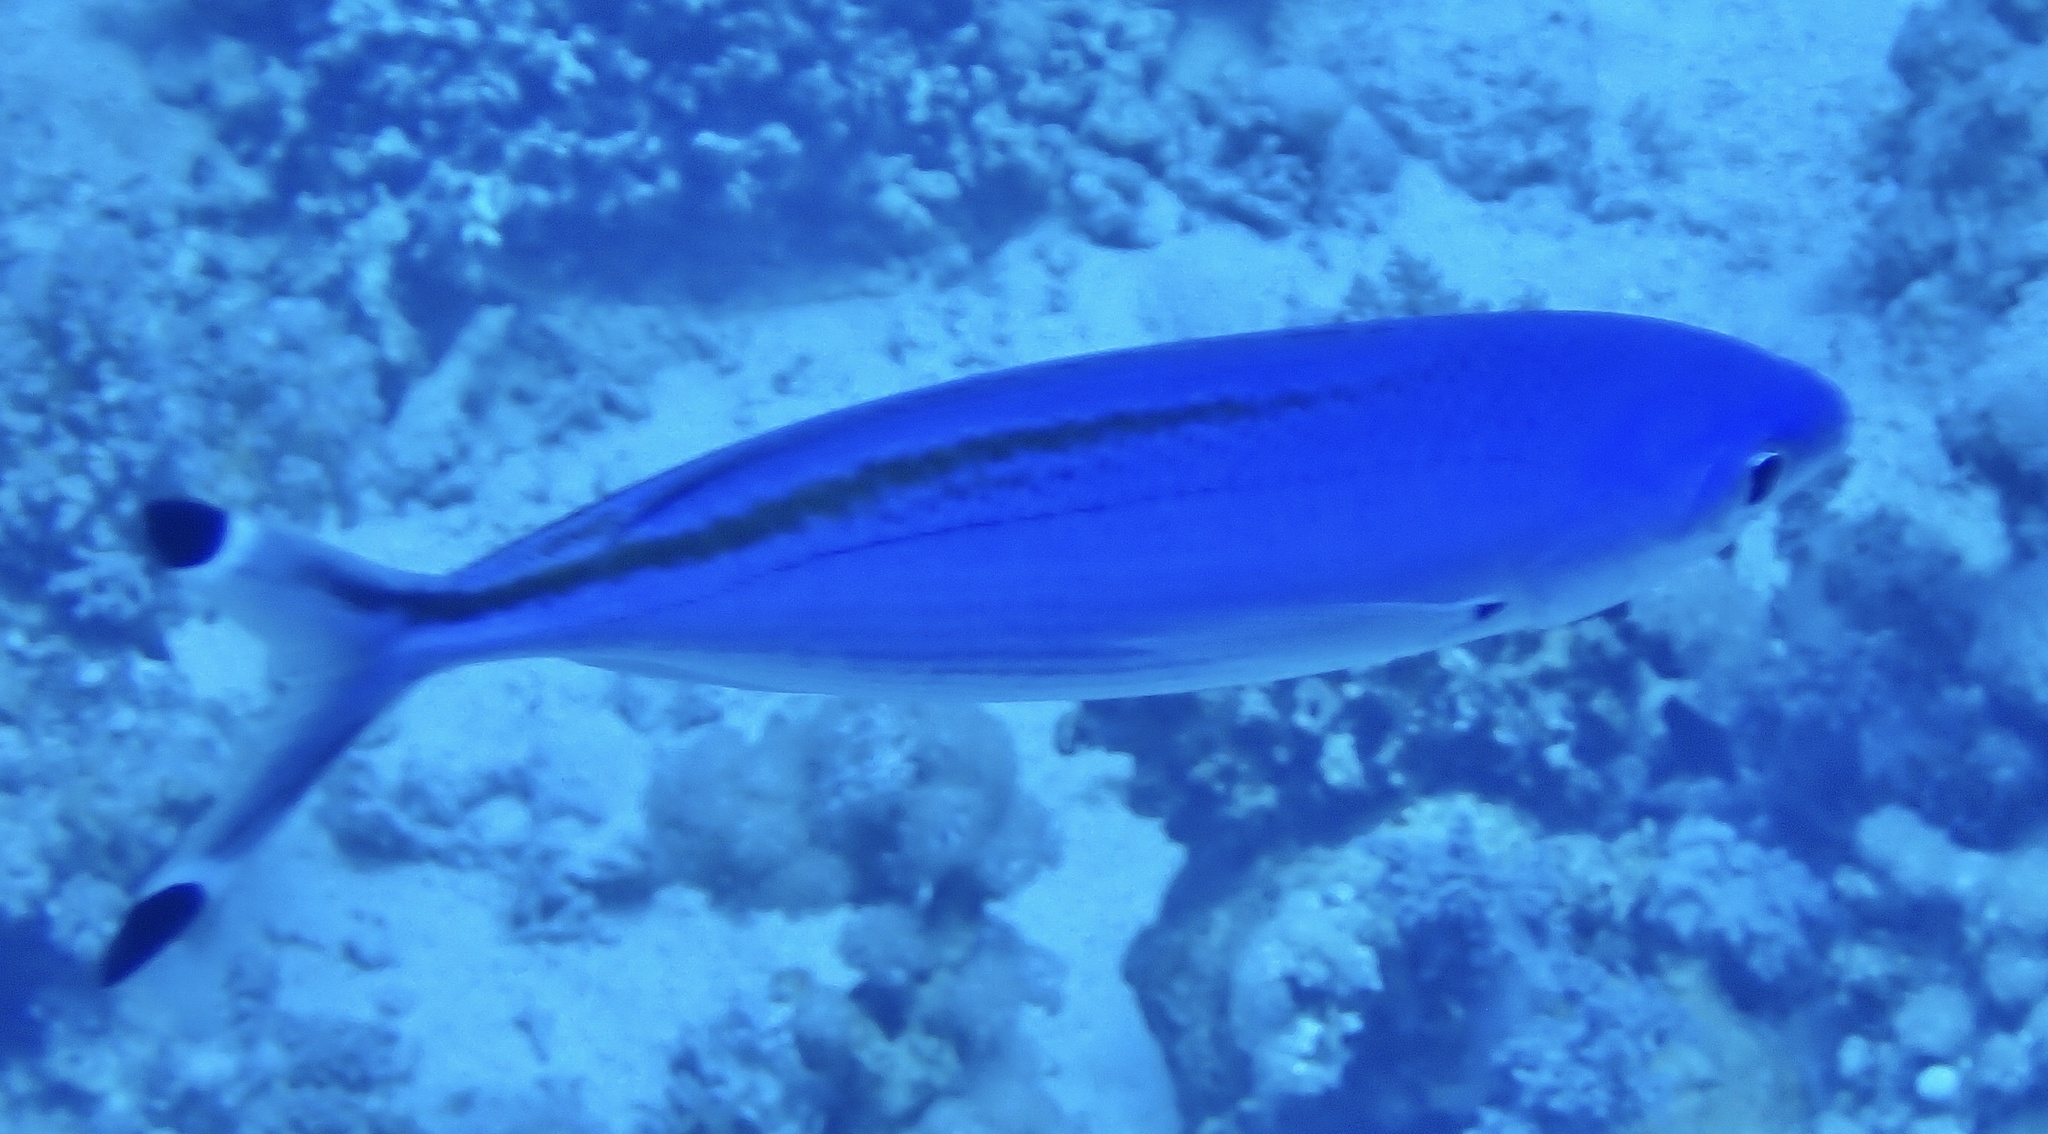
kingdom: Animalia
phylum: Chordata
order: Perciformes
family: Caesionidae
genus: Caesio
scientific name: Caesio suevica
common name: Suez fusilier
